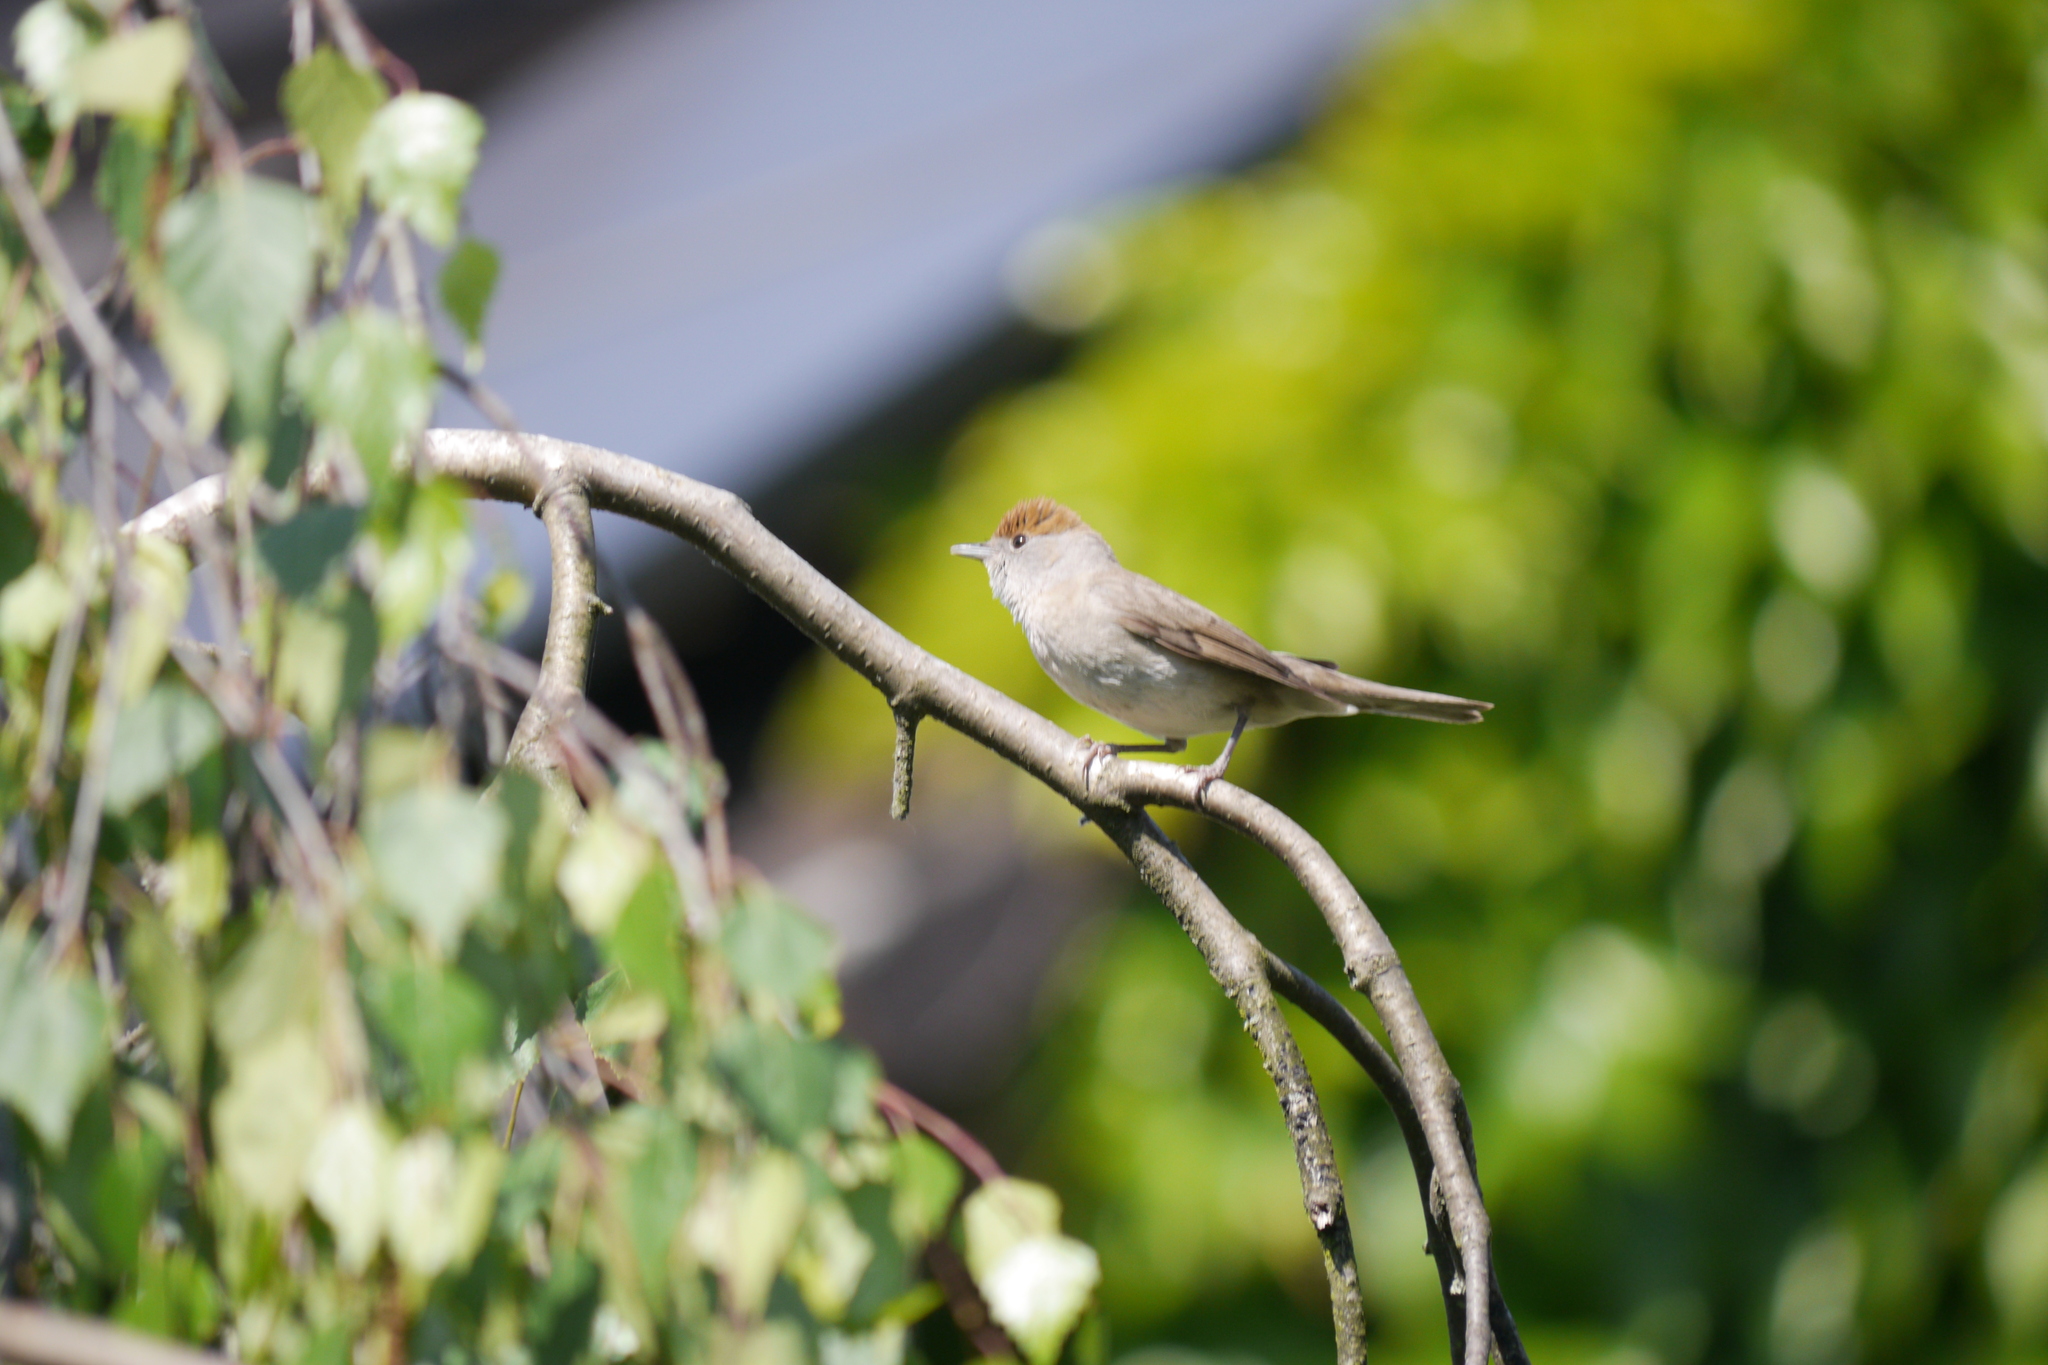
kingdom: Animalia
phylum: Chordata
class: Aves
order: Passeriformes
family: Sylviidae
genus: Sylvia
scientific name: Sylvia atricapilla
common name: Eurasian blackcap
